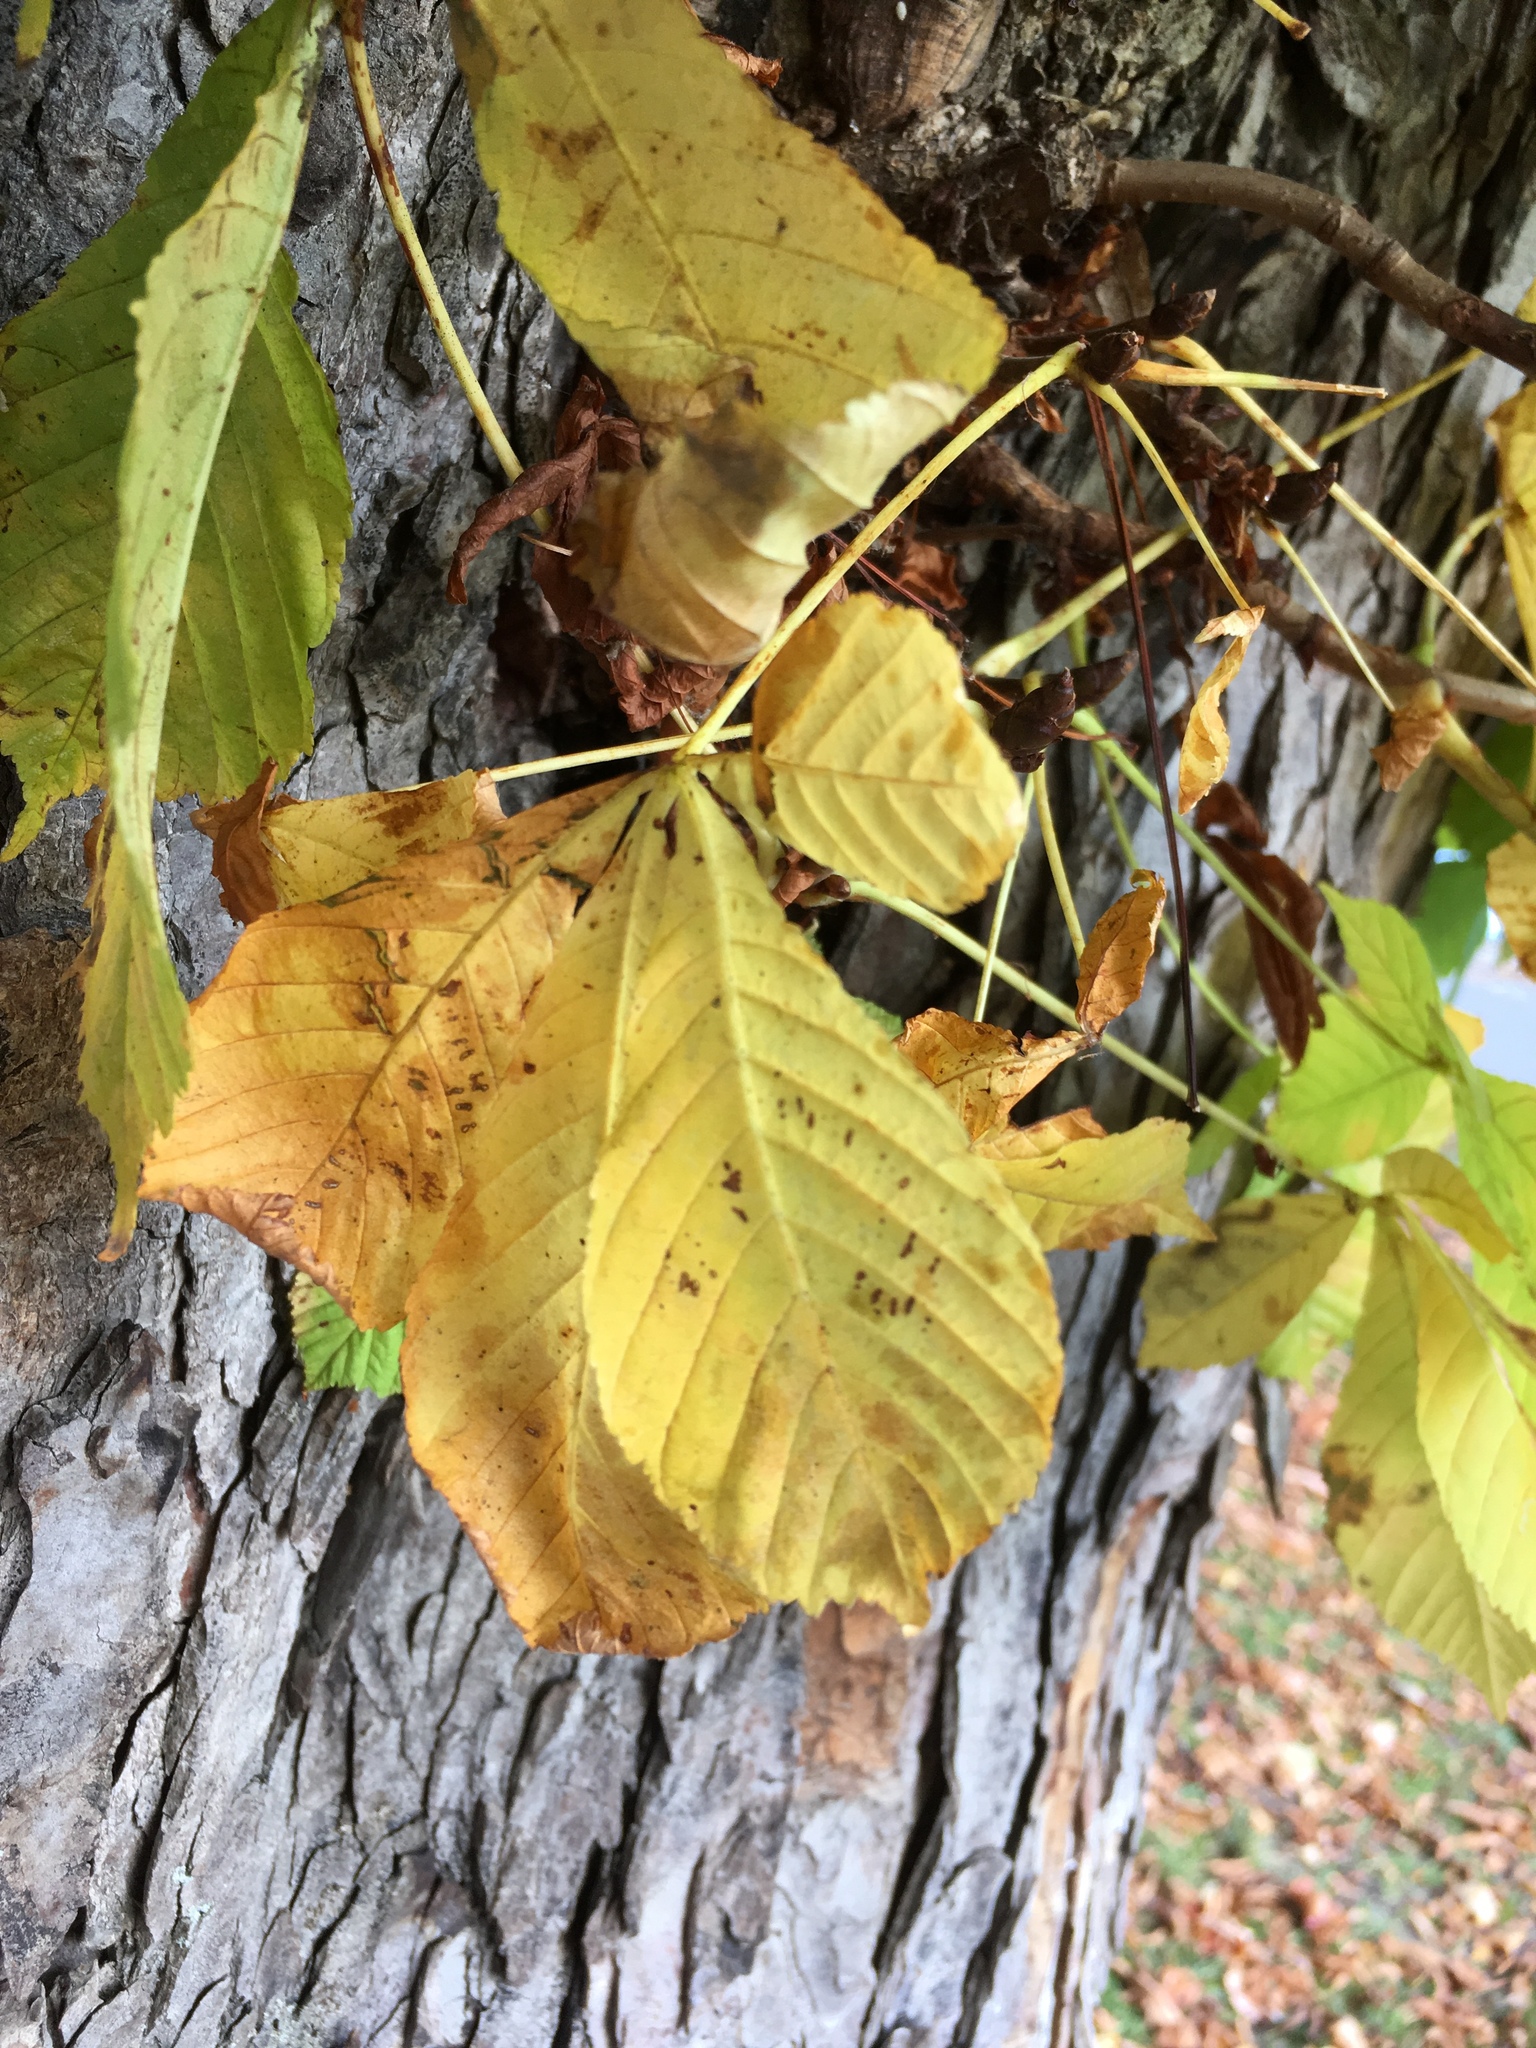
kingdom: Plantae
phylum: Tracheophyta
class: Magnoliopsida
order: Sapindales
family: Sapindaceae
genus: Aesculus
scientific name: Aesculus hippocastanum
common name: Horse-chestnut
